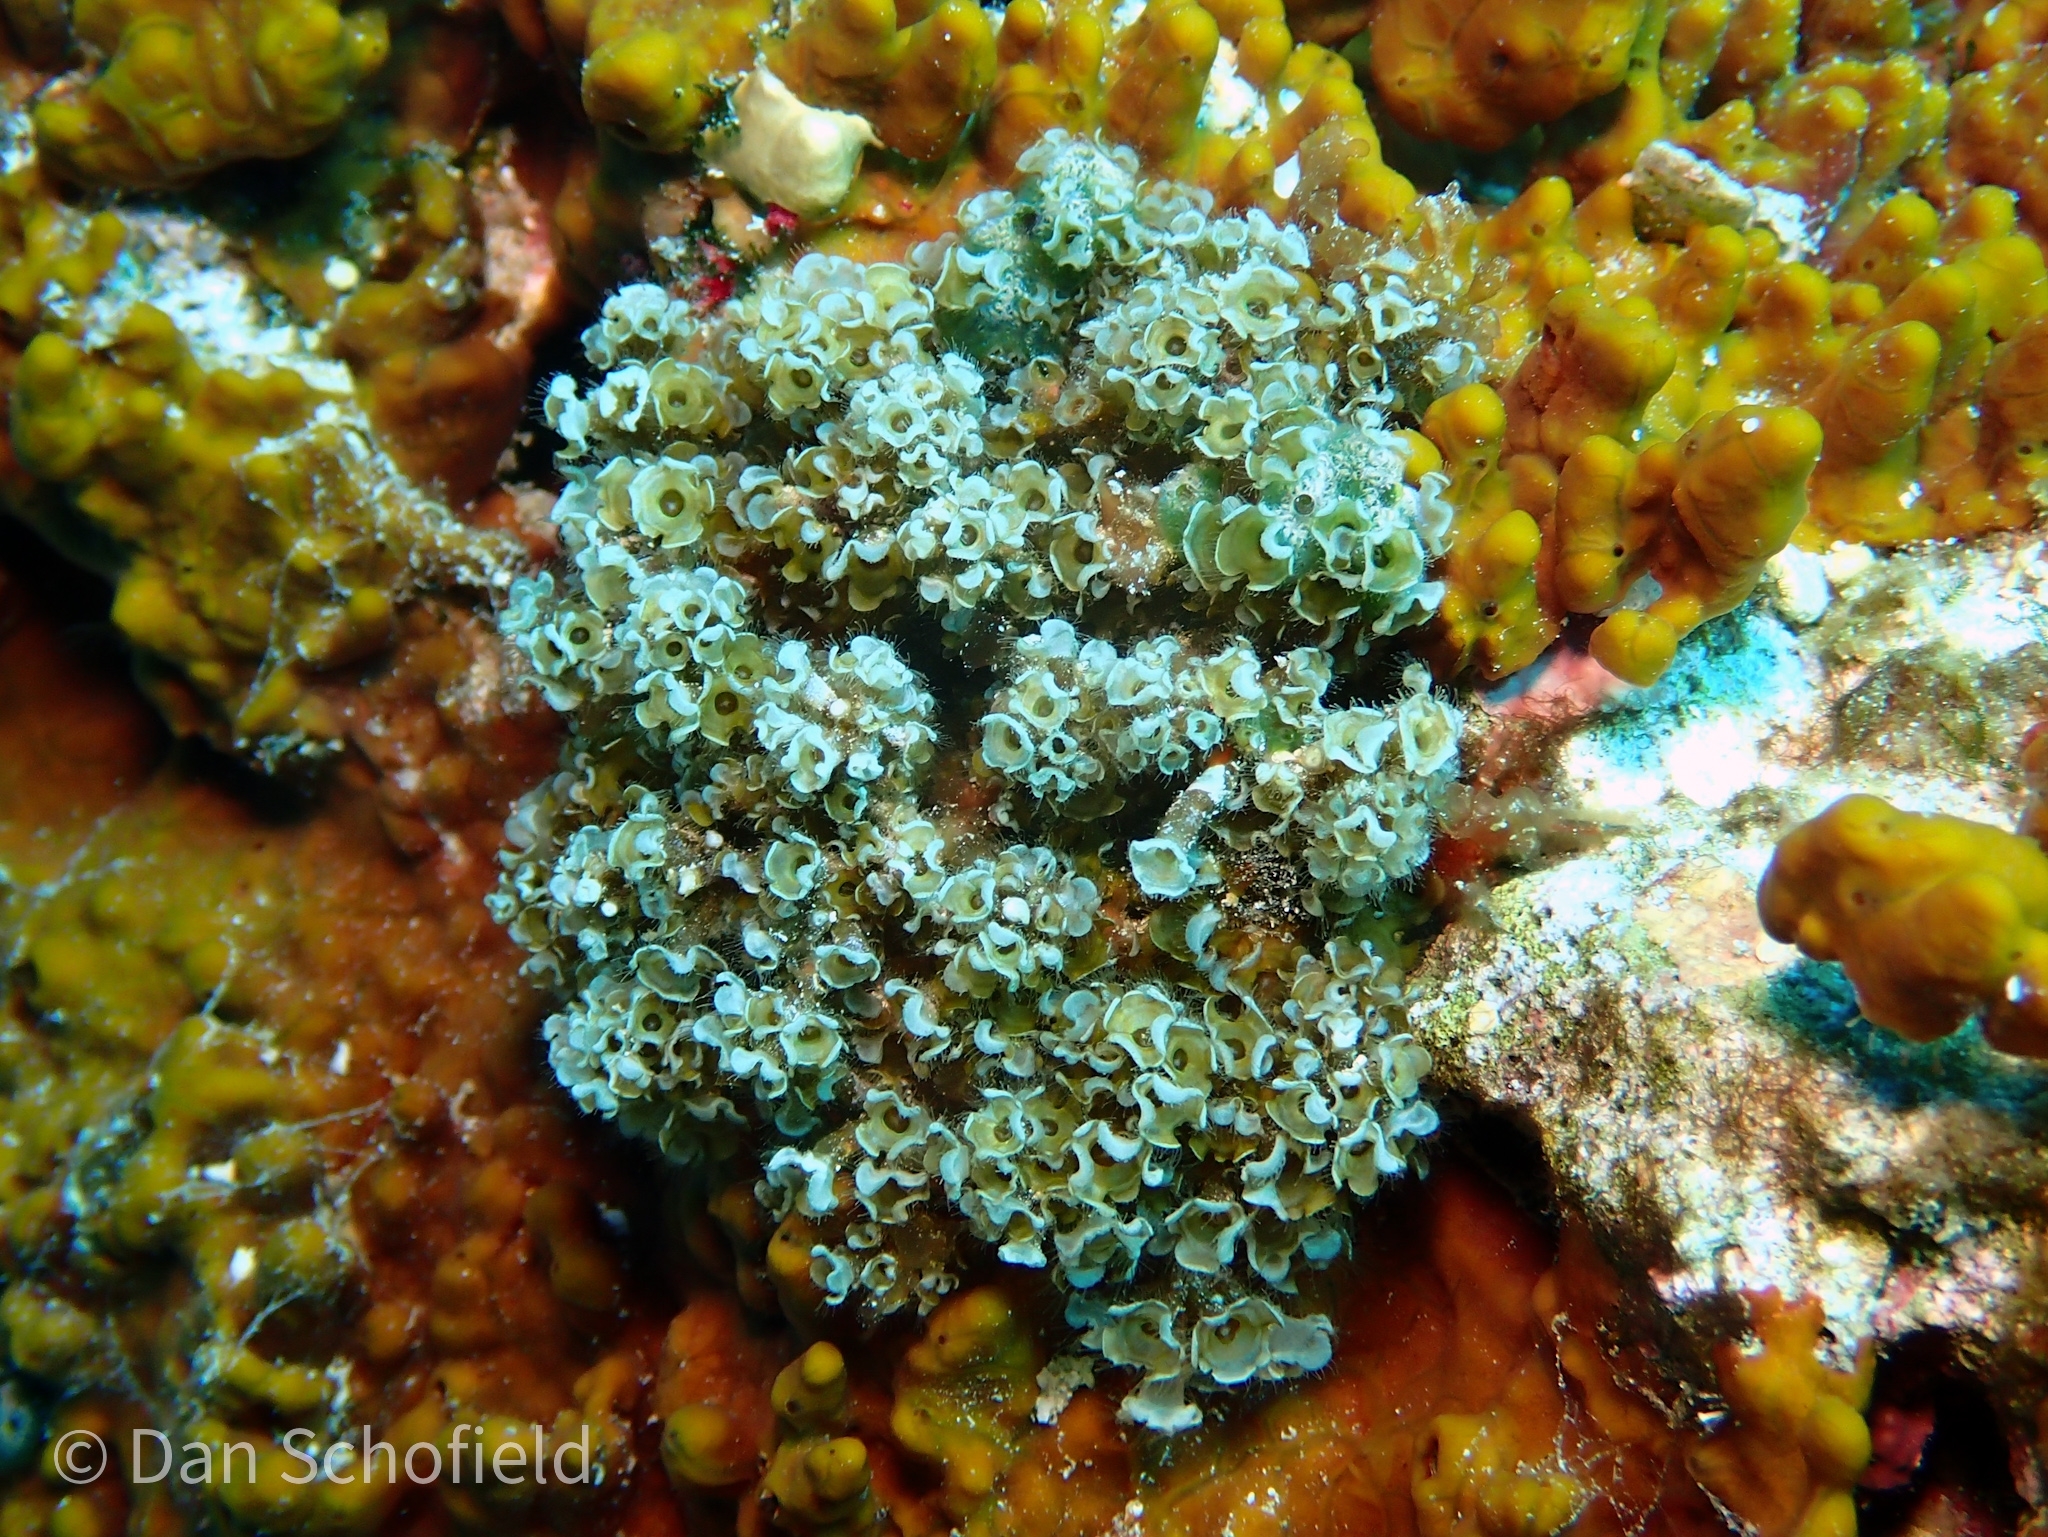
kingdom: Animalia
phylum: Cnidaria
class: Scyphozoa
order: Coronatae
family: Nausithoidae
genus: Nausithoe
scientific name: Nausithoe racemosa
